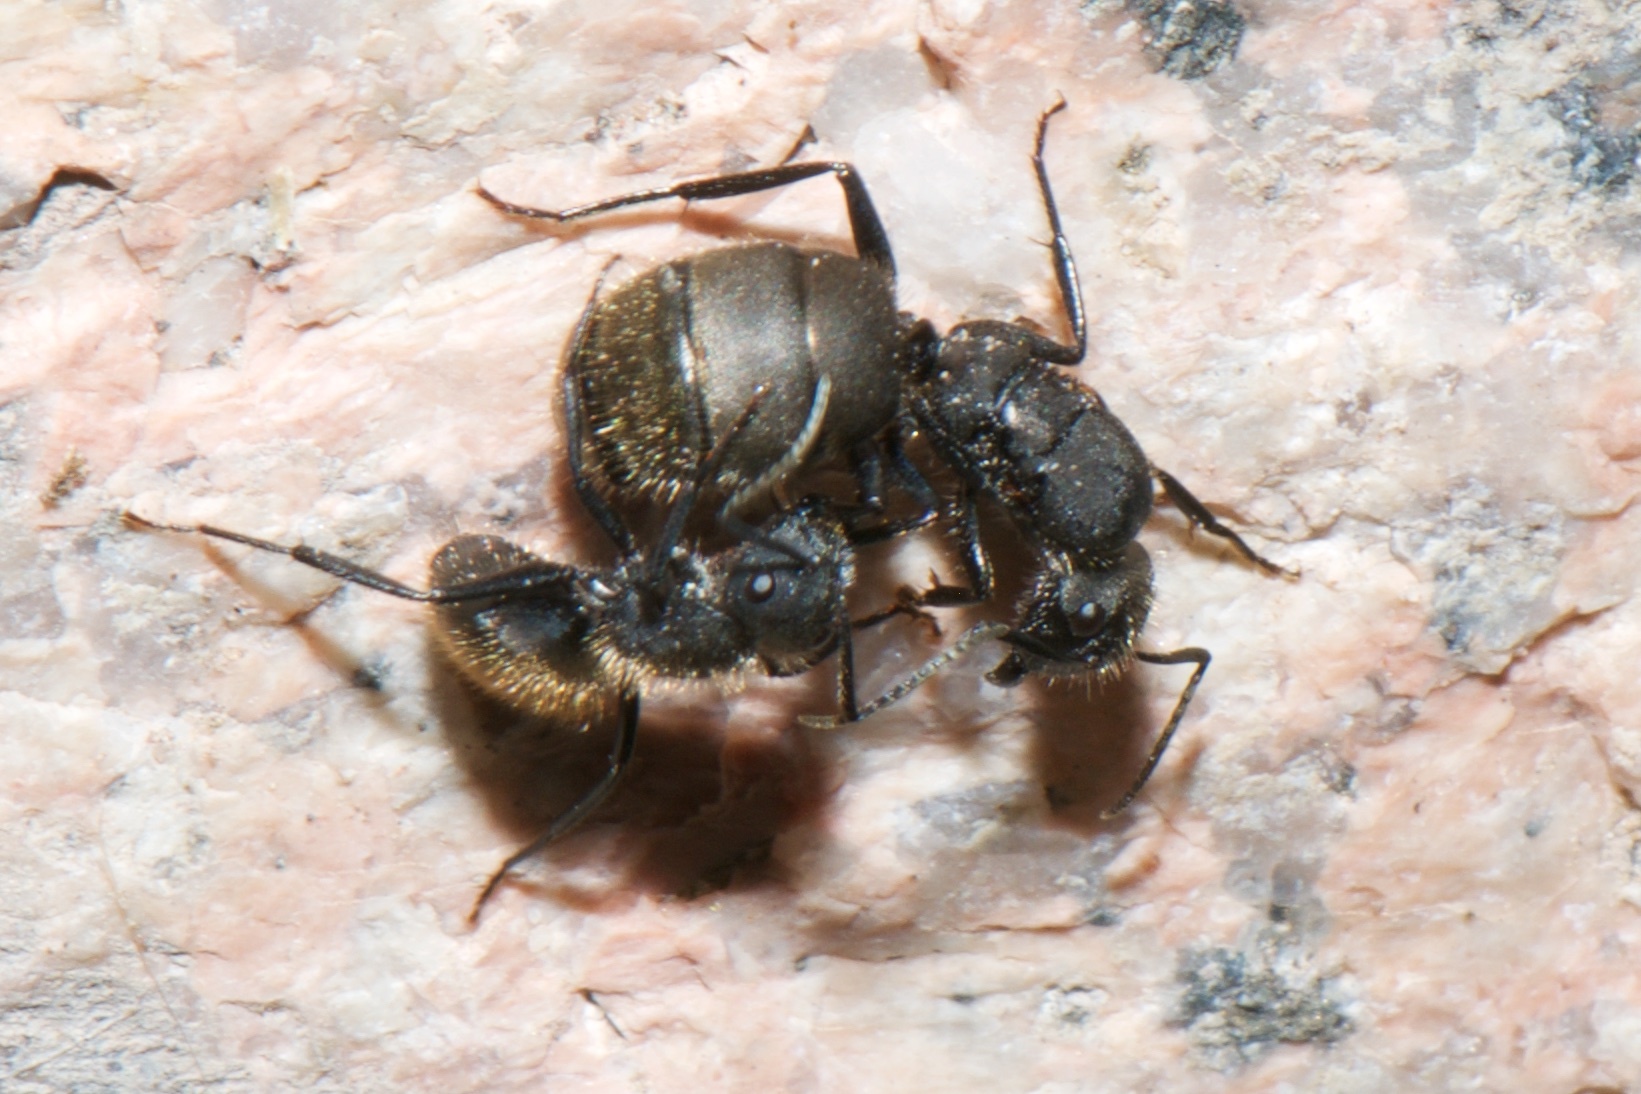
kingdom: Animalia
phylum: Arthropoda
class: Insecta
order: Hymenoptera
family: Formicidae
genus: Camponotus
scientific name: Camponotus mus
